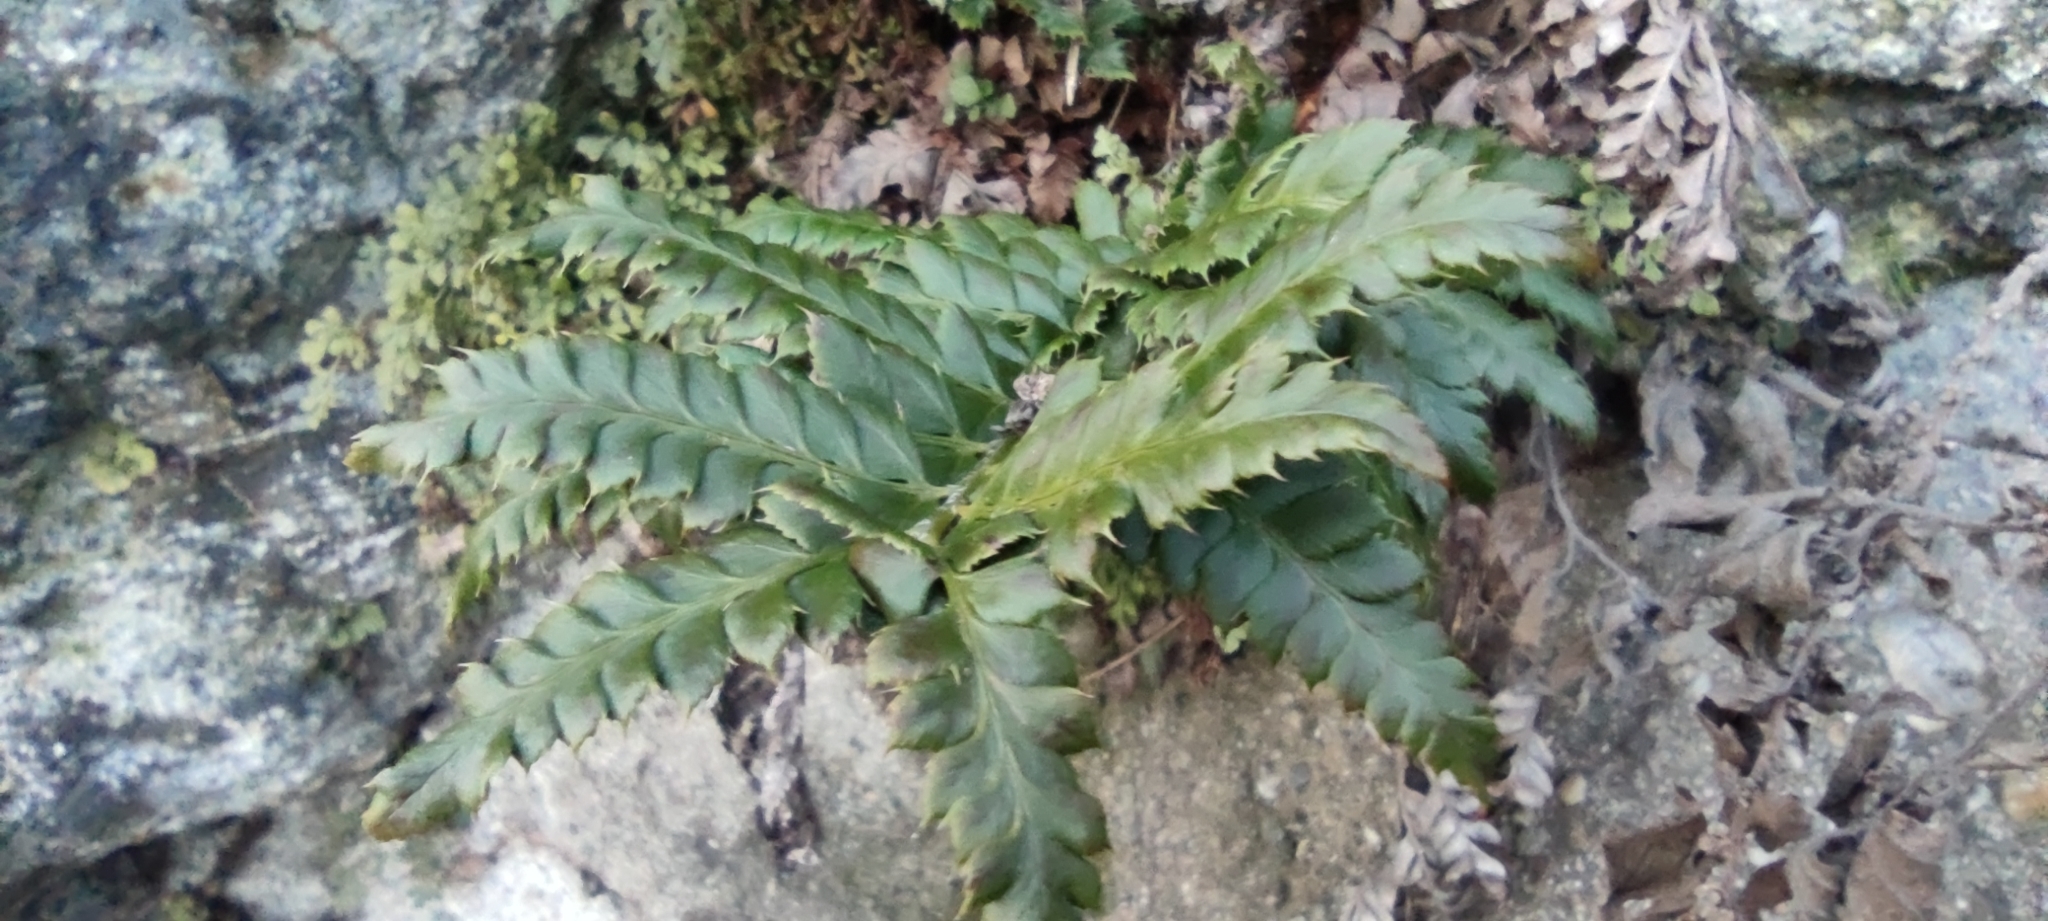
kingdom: Plantae
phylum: Tracheophyta
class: Polypodiopsida
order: Polypodiales
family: Dryopteridaceae
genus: Polystichum
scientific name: Polystichum aculeatum
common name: Hard shield-fern
